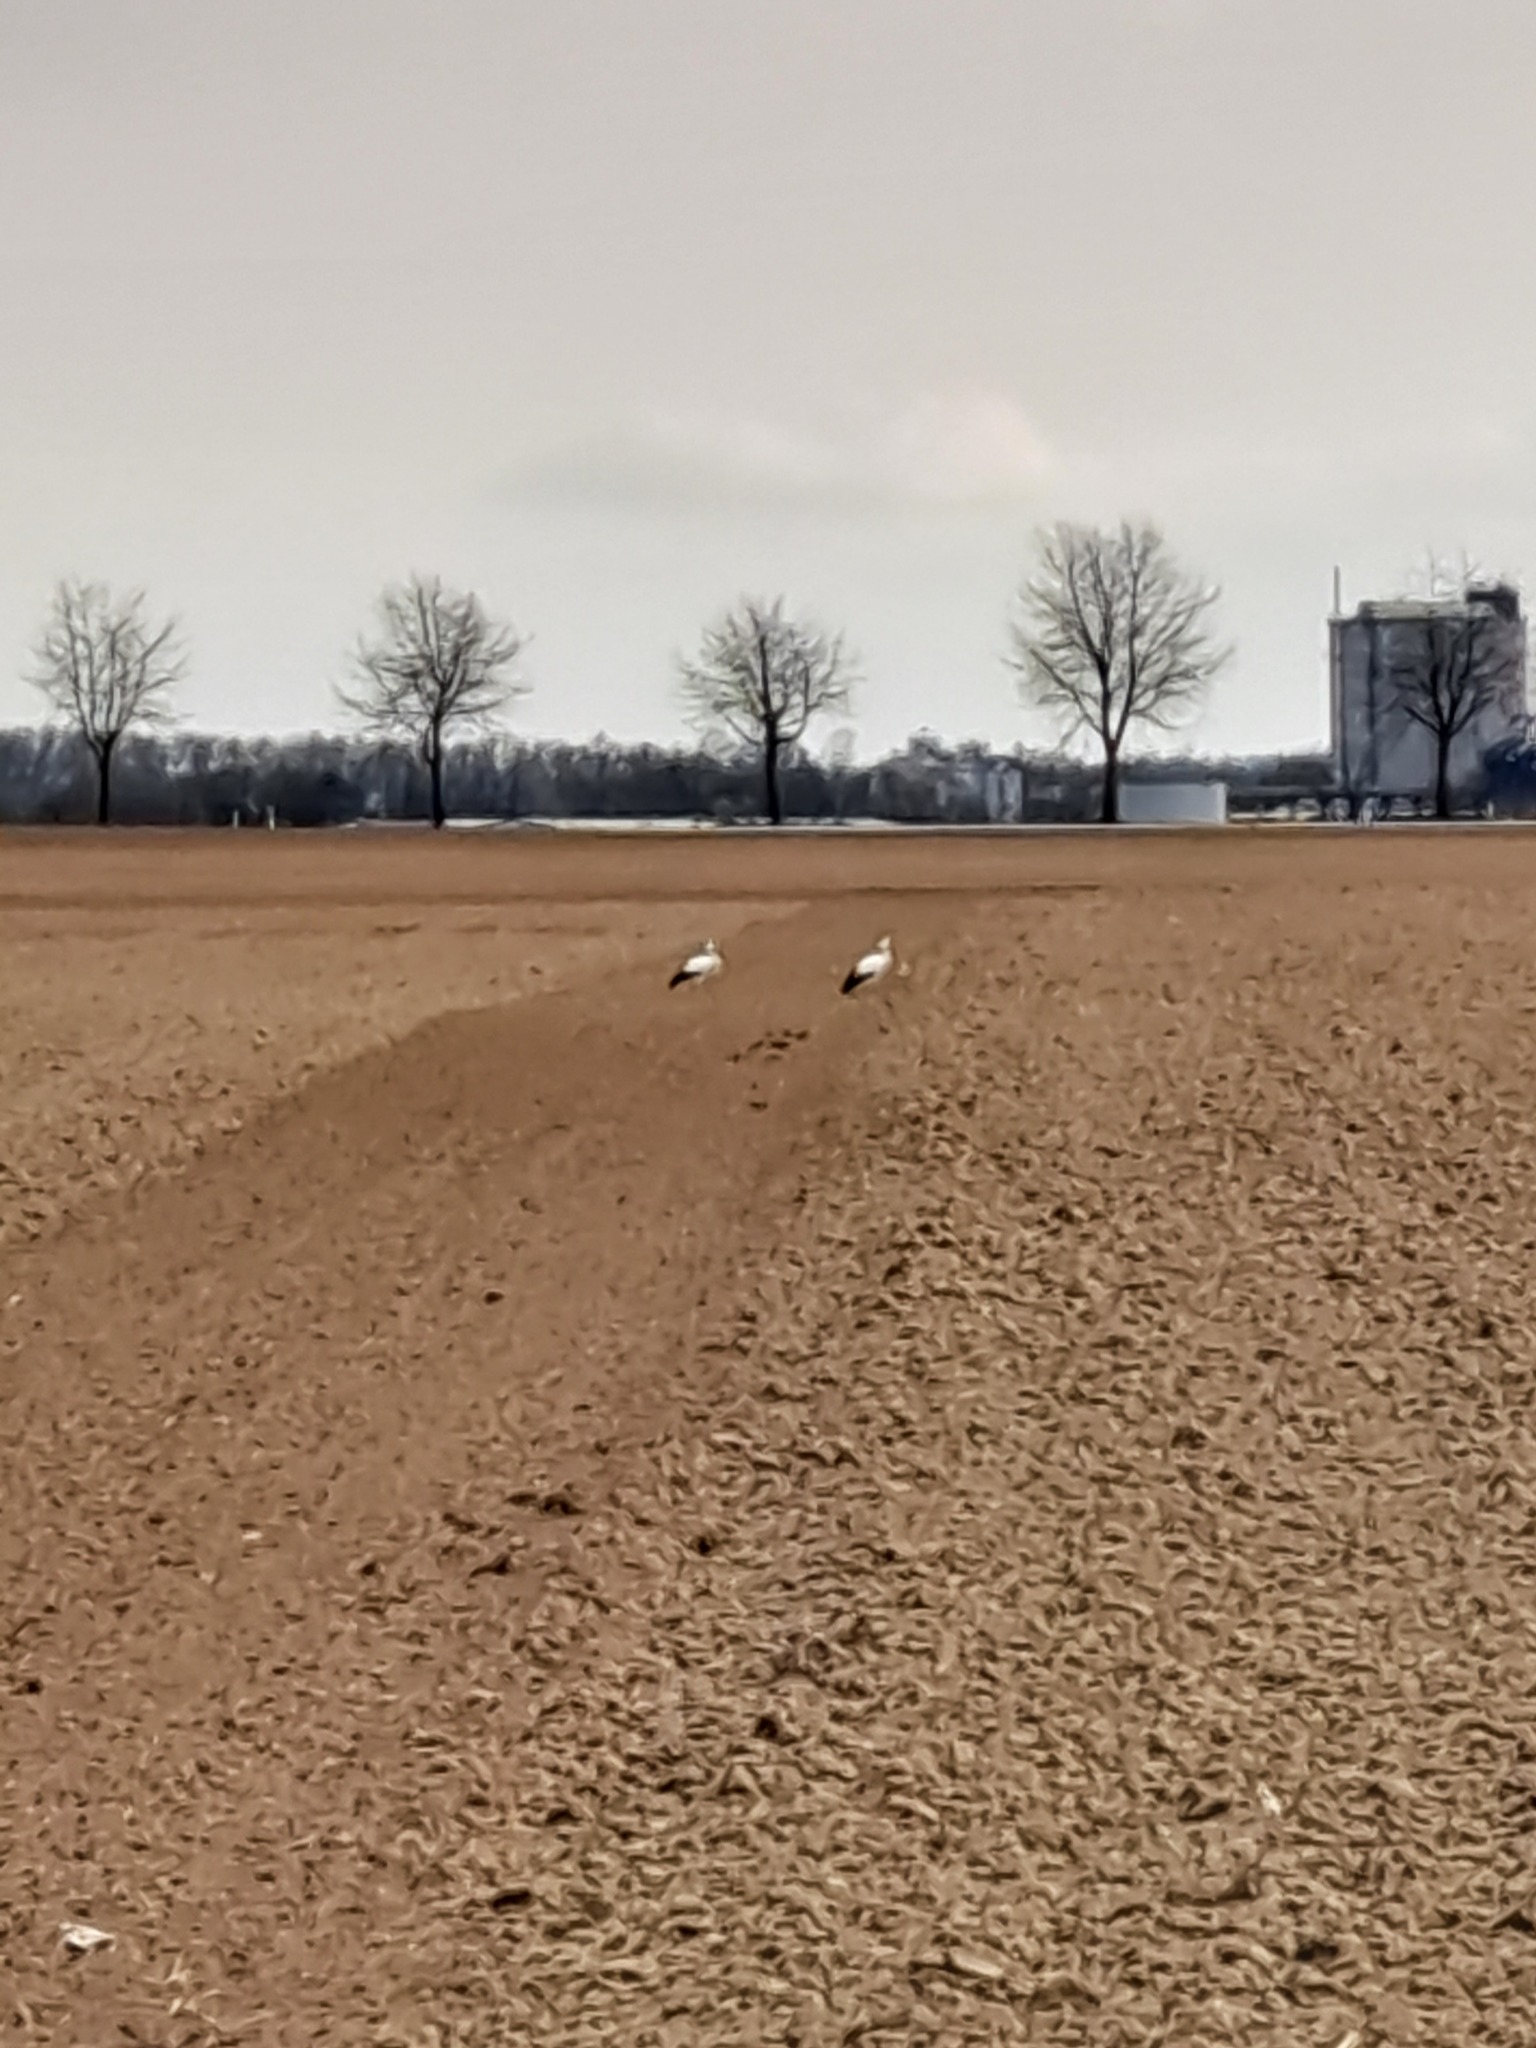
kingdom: Animalia
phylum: Chordata
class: Aves
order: Ciconiiformes
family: Ciconiidae
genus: Ciconia
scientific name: Ciconia ciconia
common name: White stork
